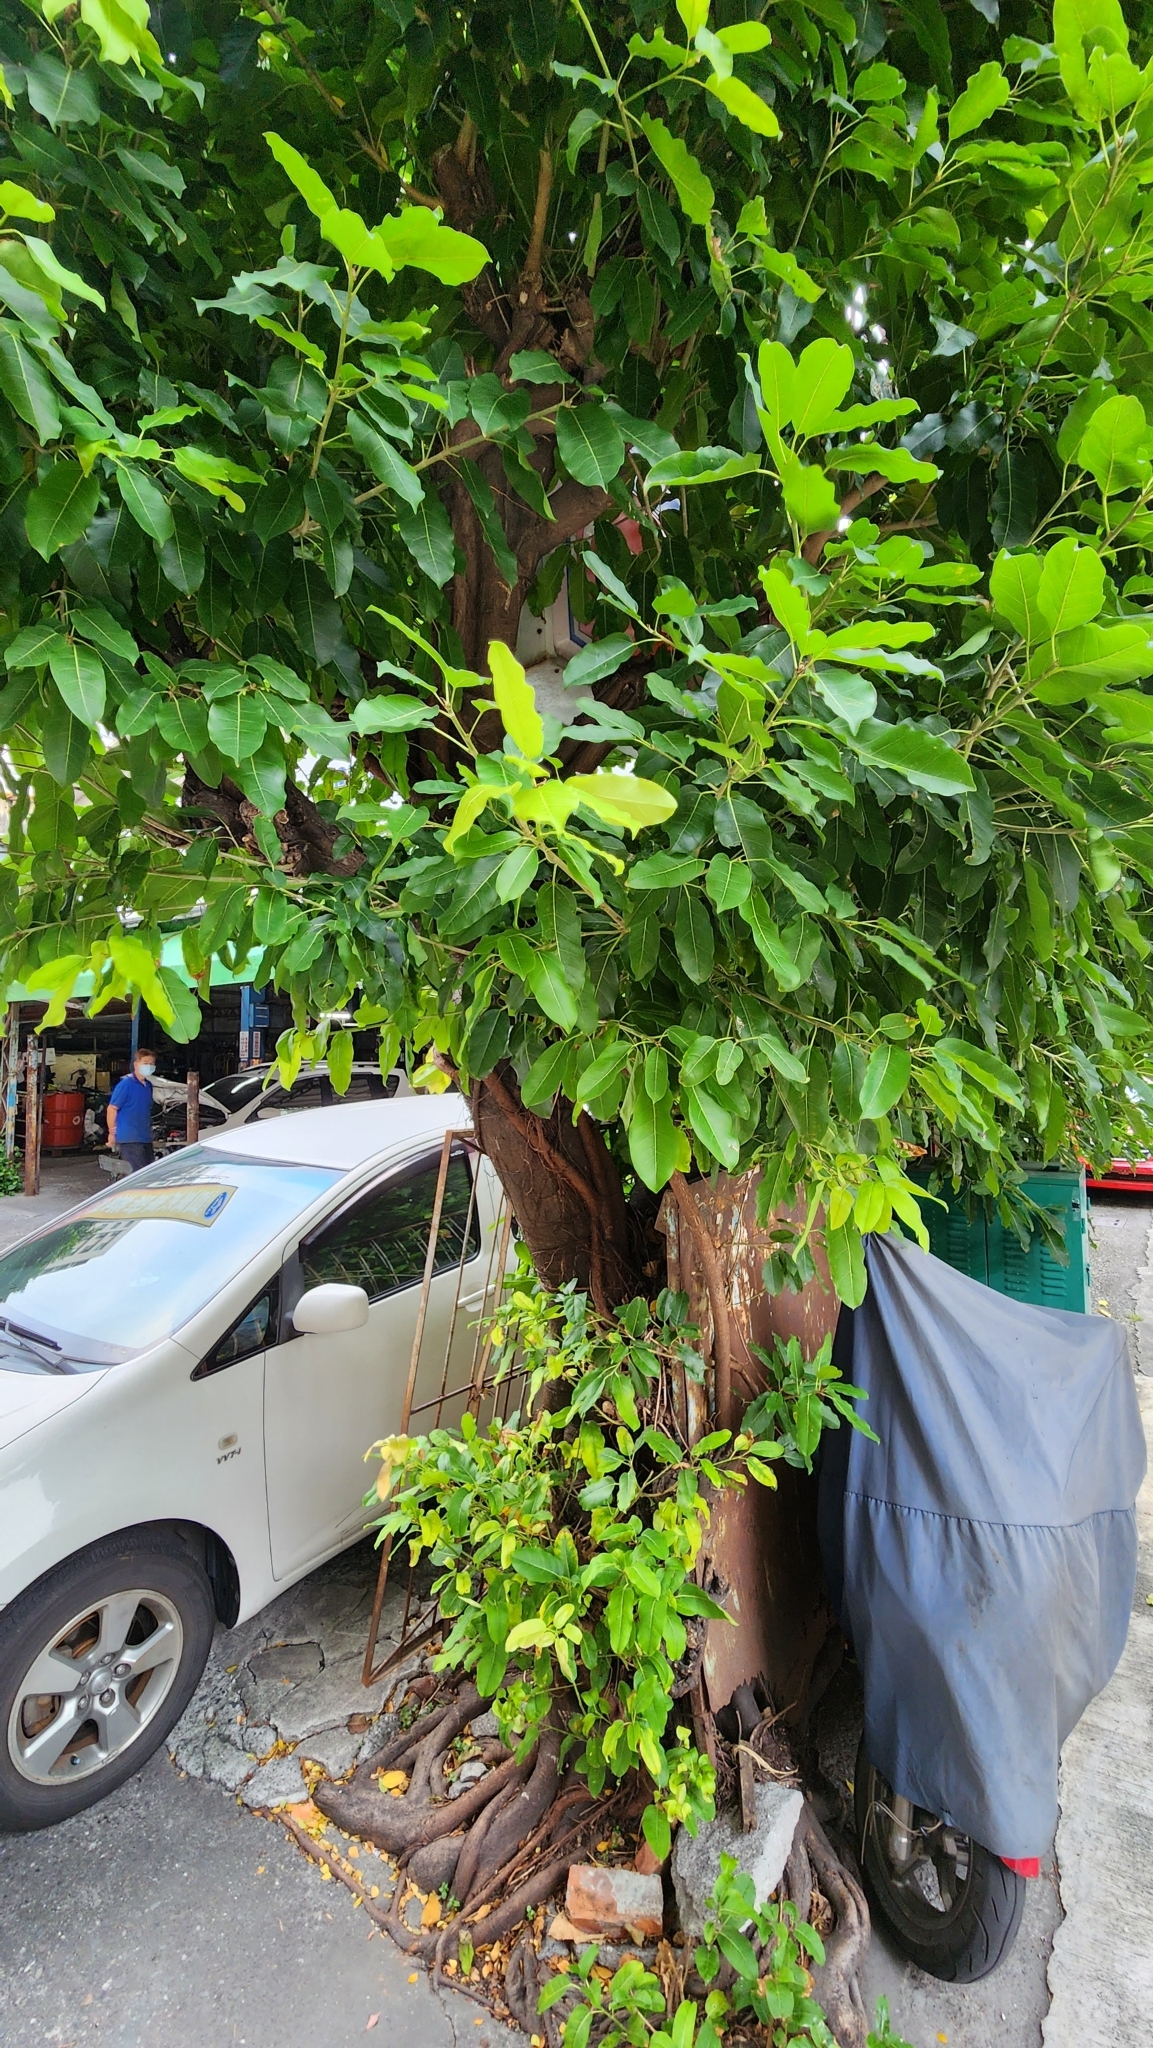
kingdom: Plantae
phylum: Tracheophyta
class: Magnoliopsida
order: Rosales
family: Moraceae
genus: Ficus
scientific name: Ficus subpisocarpa
